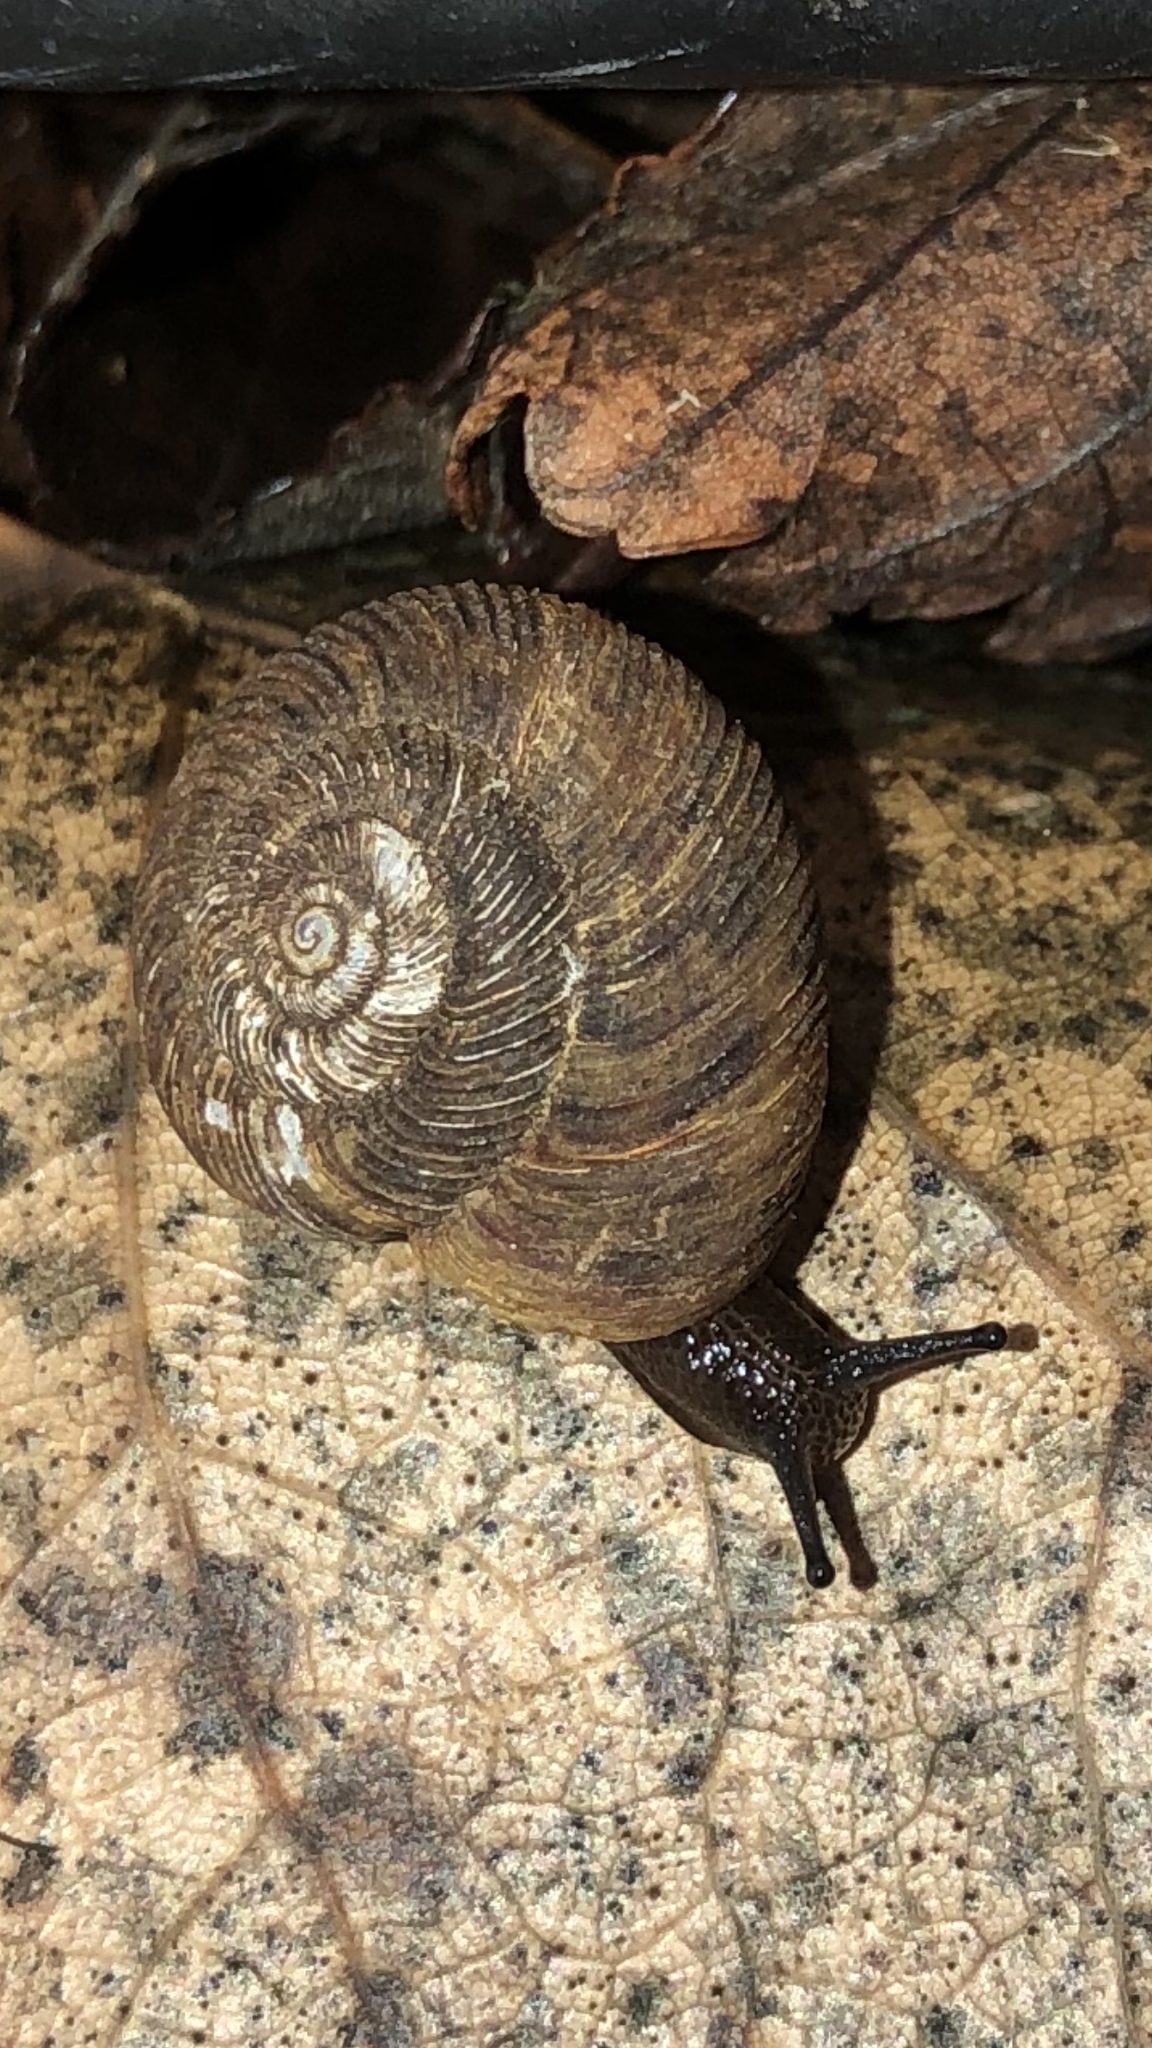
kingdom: Animalia
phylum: Mollusca
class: Gastropoda
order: Stylommatophora
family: Discidae
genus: Anguispira
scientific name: Anguispira alternata
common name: Flamed tigersnail
